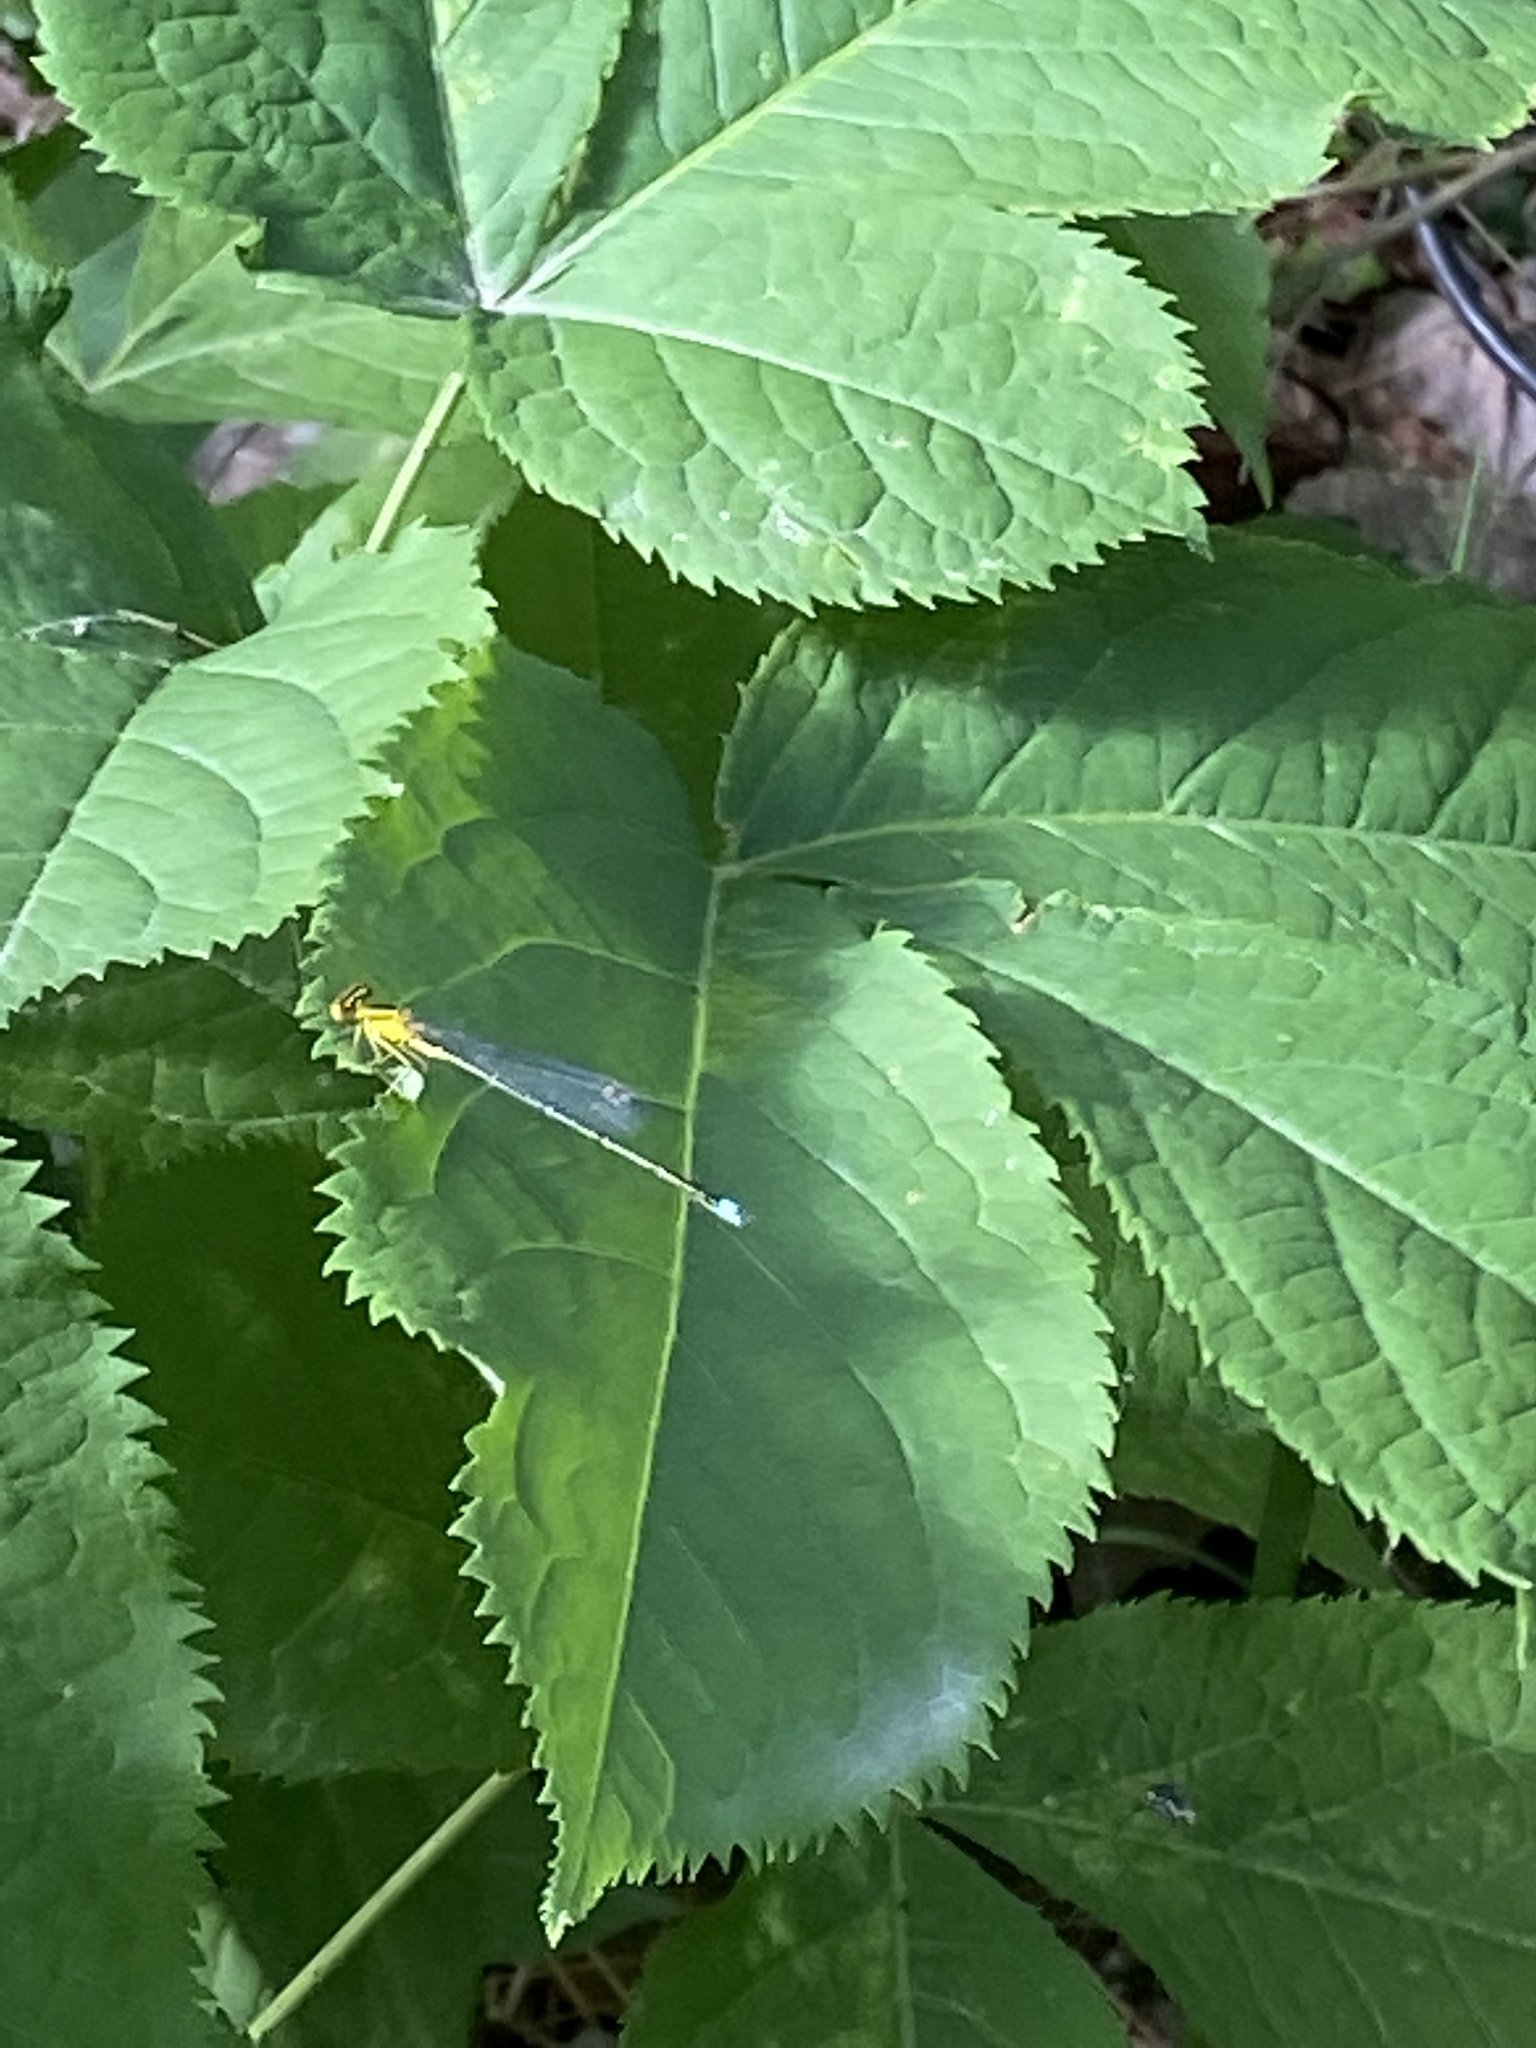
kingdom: Animalia
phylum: Arthropoda
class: Insecta
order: Odonata
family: Coenagrionidae
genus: Enallagma
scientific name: Enallagma vesperum
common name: Vesper bluet
